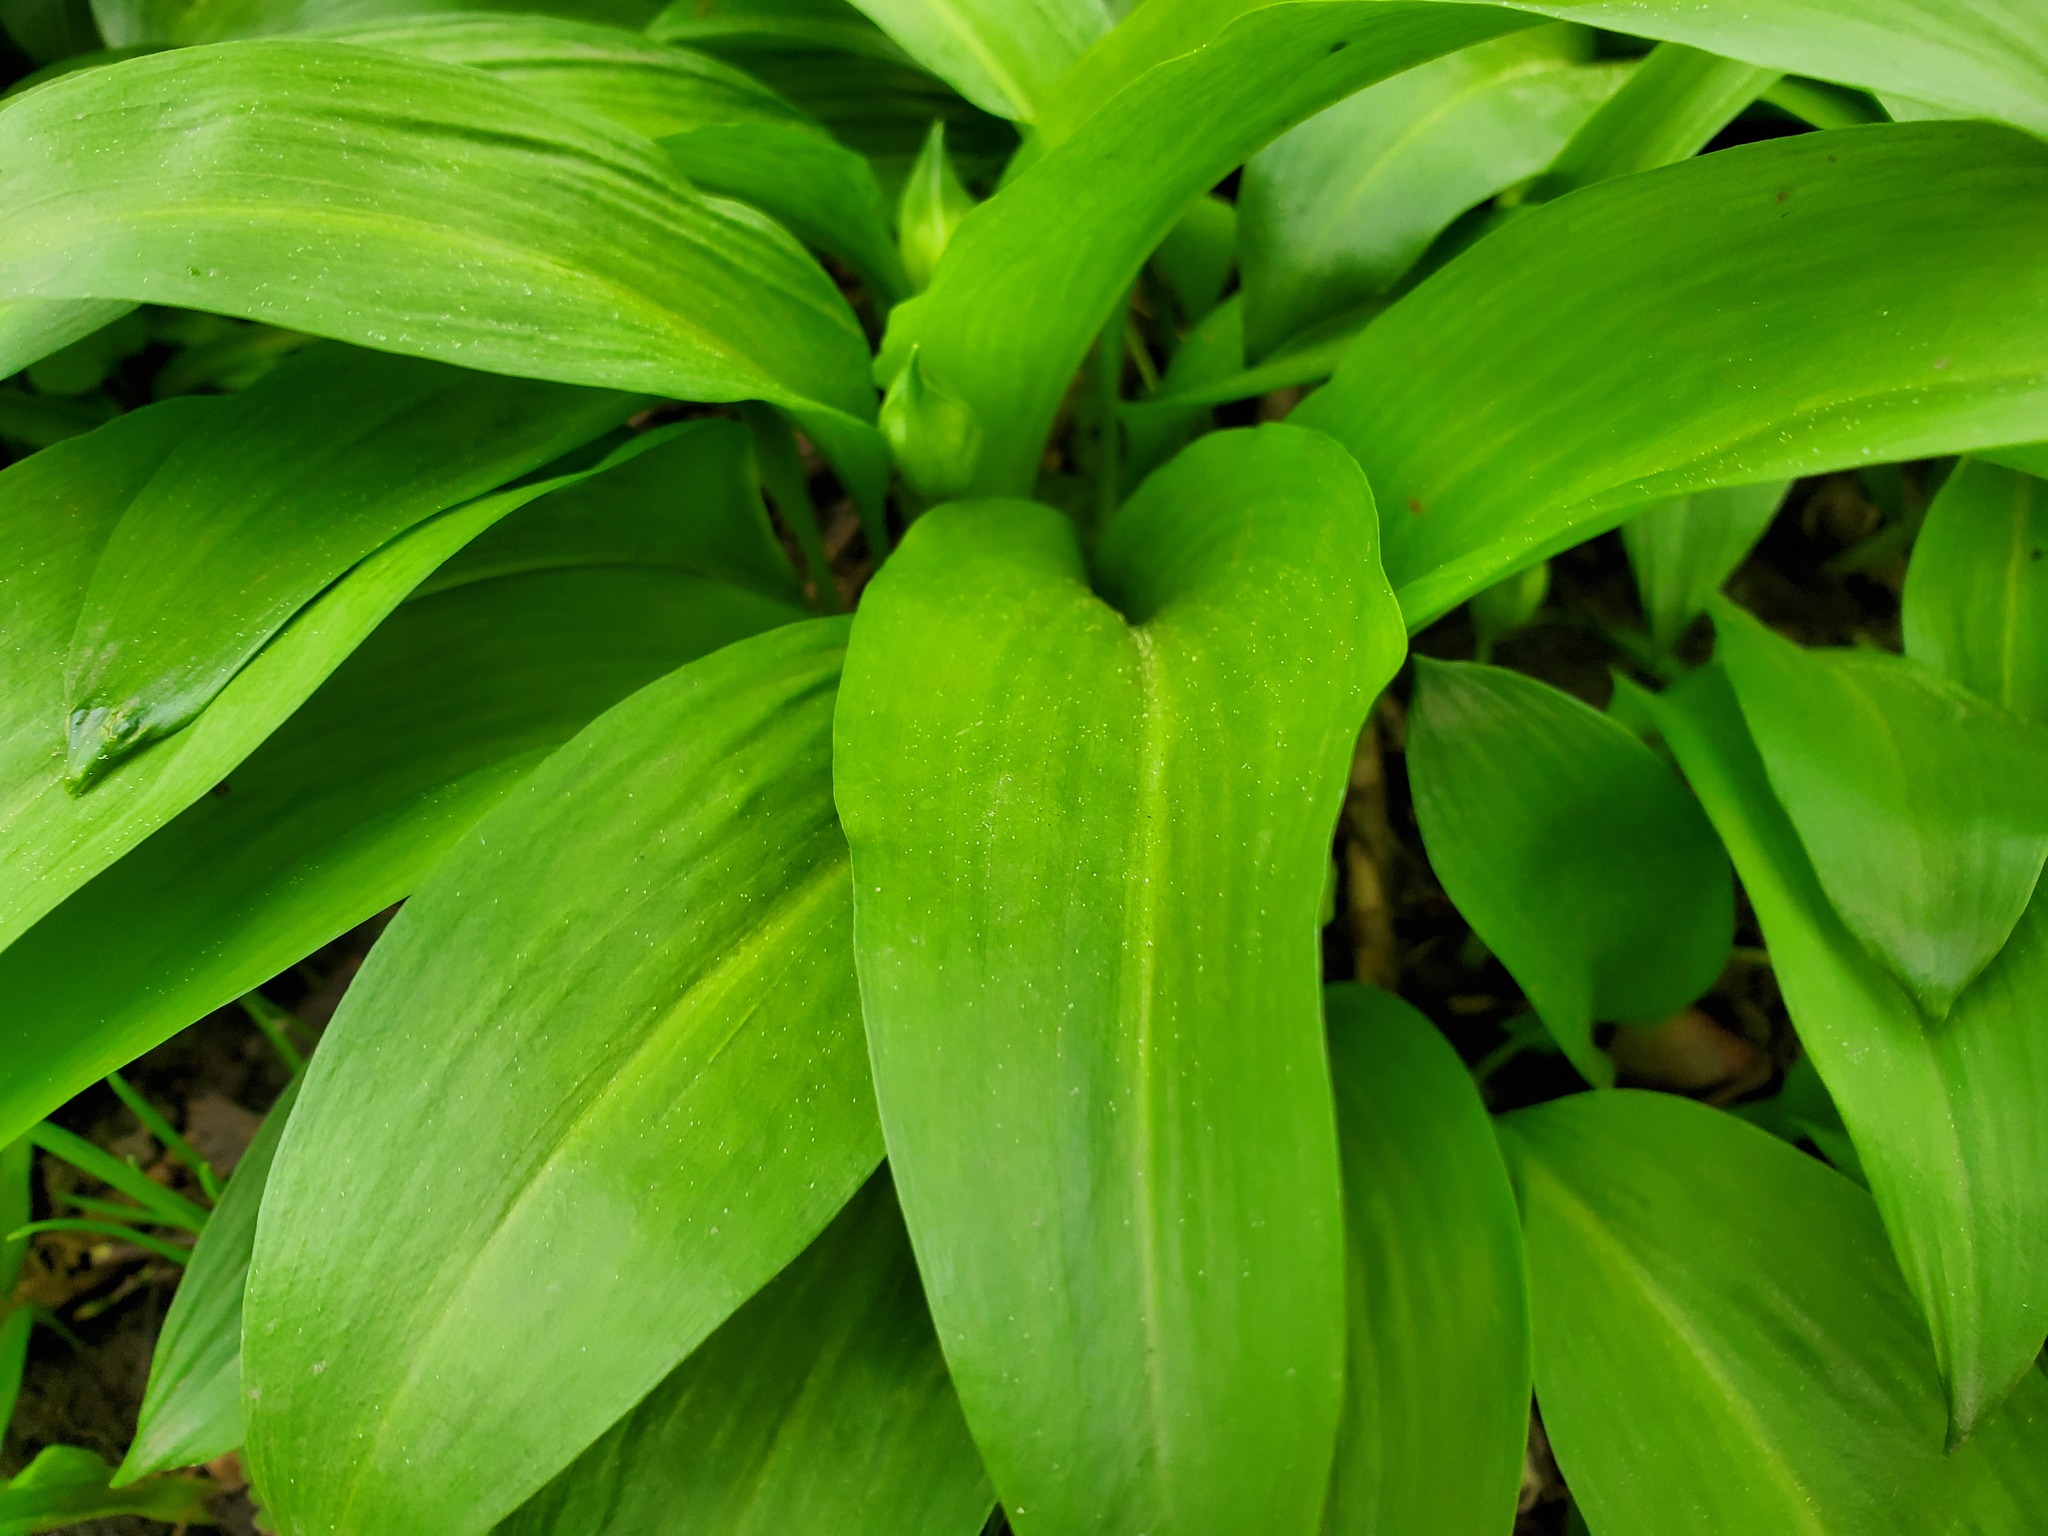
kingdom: Plantae
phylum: Tracheophyta
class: Liliopsida
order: Asparagales
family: Amaryllidaceae
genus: Allium
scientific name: Allium ursinum
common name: Ramsons
